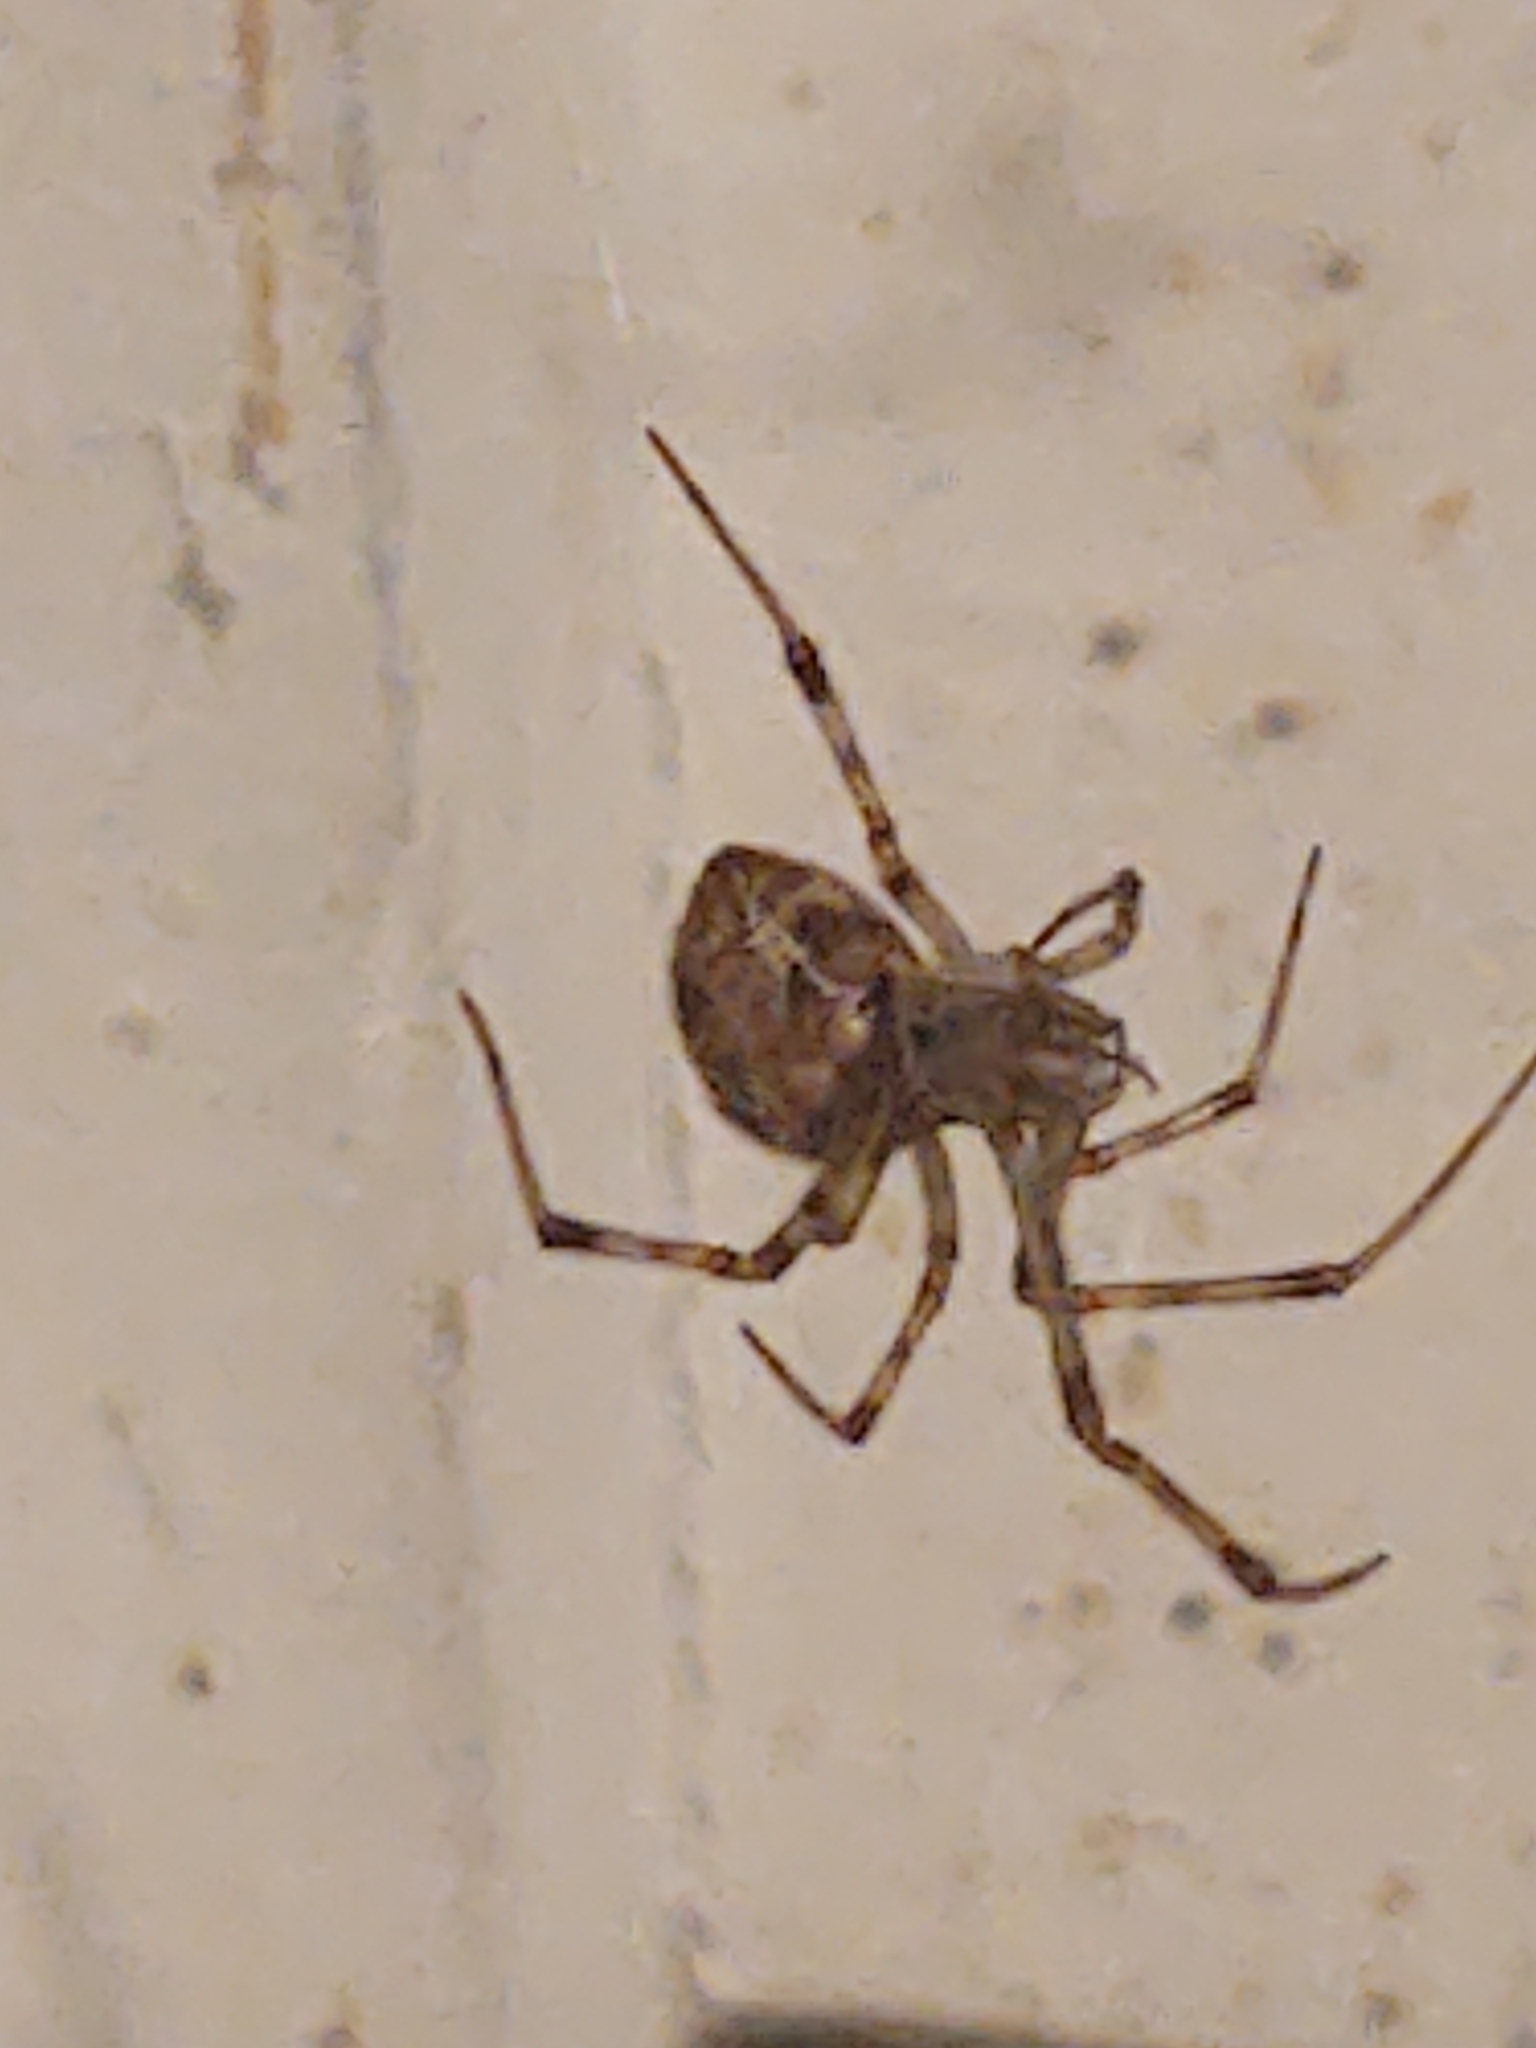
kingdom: Animalia
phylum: Arthropoda
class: Arachnida
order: Araneae
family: Theridiidae
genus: Parasteatoda
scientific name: Parasteatoda tepidariorum
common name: Common house spider
